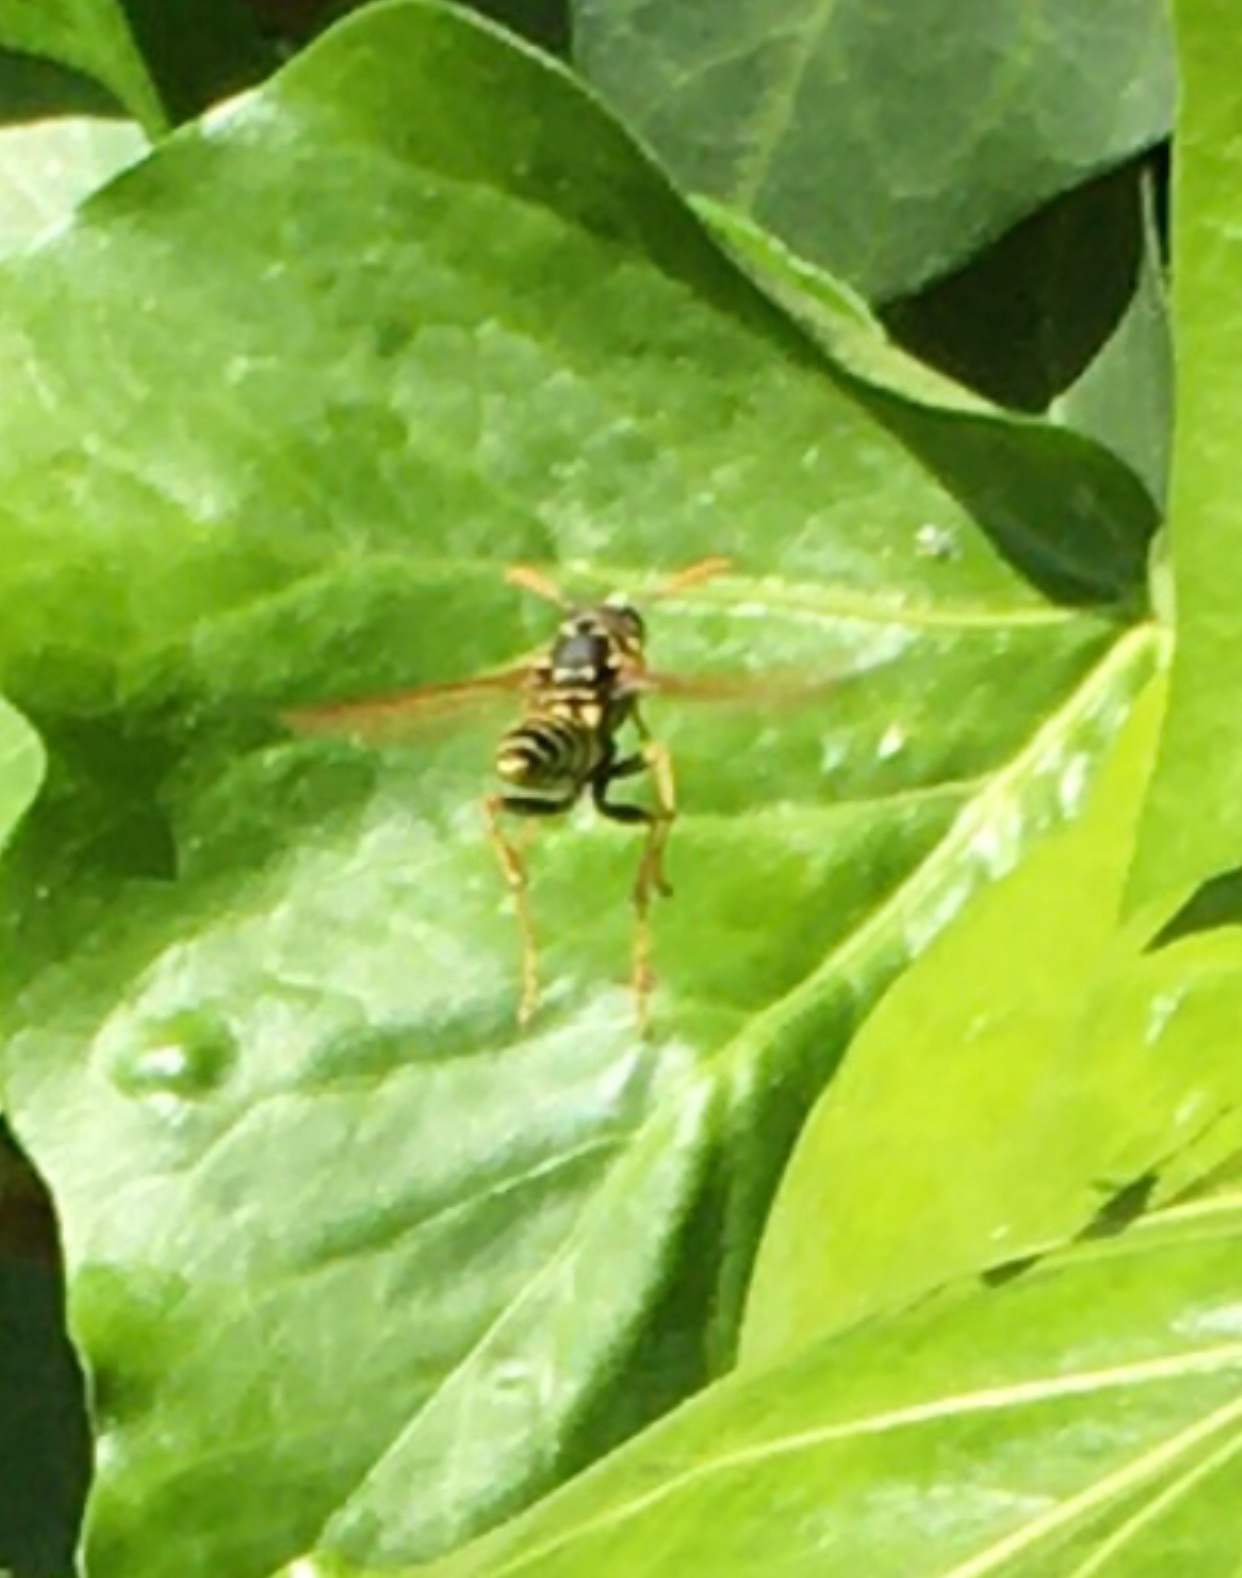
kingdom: Animalia
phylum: Arthropoda
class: Insecta
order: Hymenoptera
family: Eumenidae
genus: Polistes
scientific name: Polistes dominula
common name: Paper wasp
